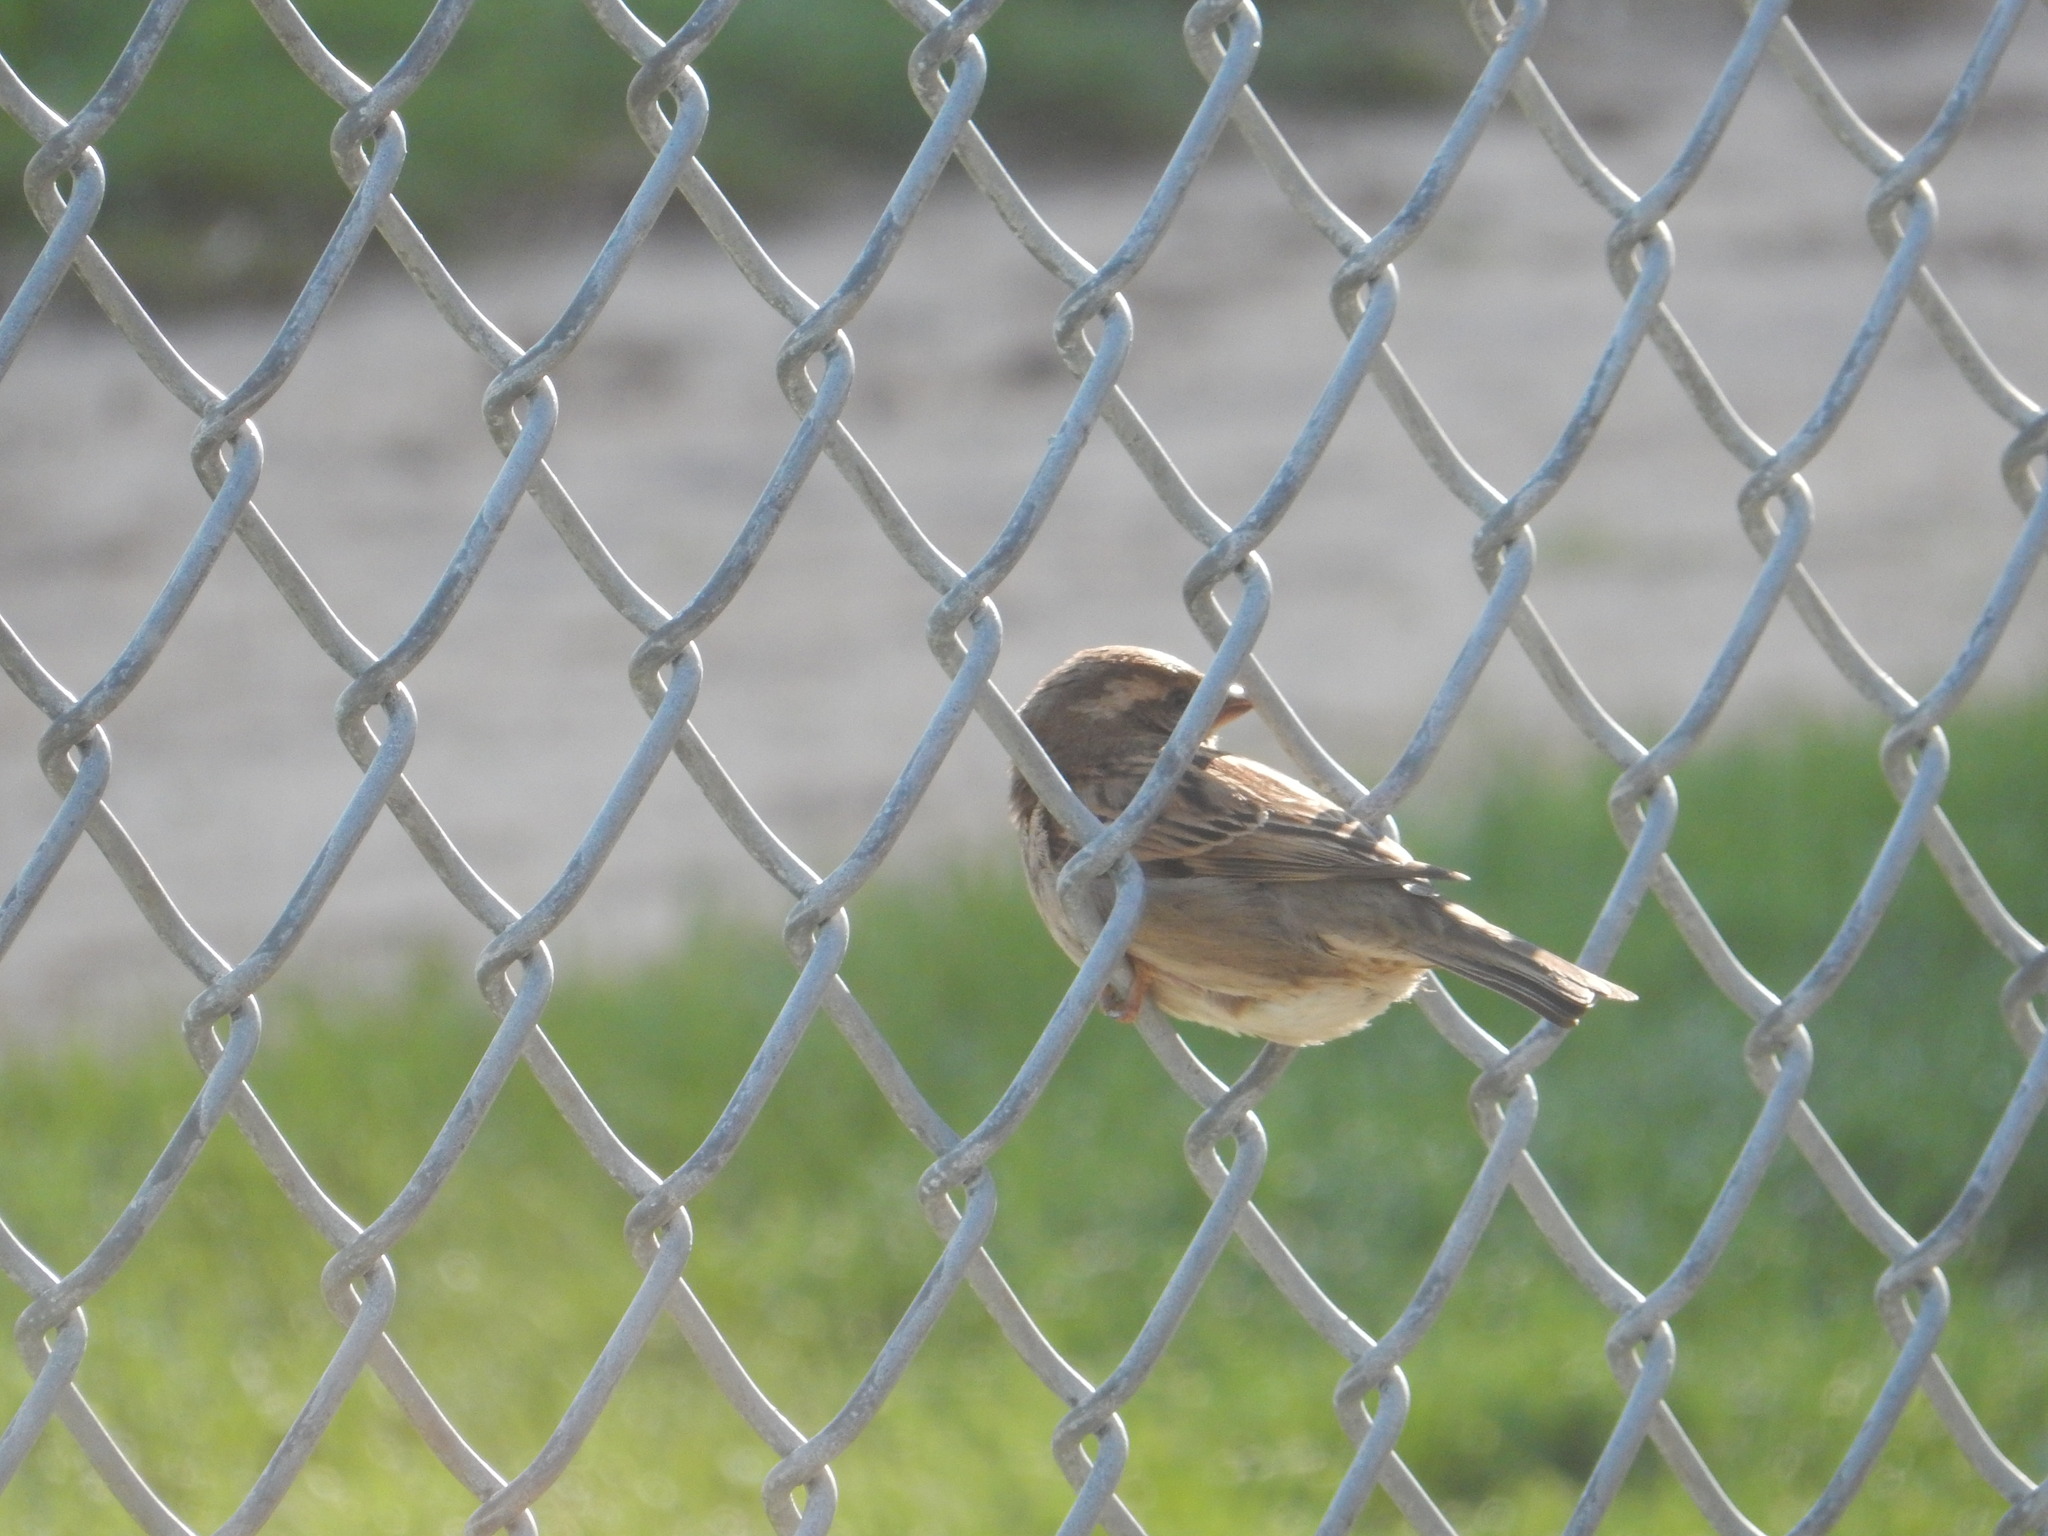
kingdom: Animalia
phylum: Chordata
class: Aves
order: Passeriformes
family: Passeridae
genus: Passer
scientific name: Passer domesticus
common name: House sparrow
